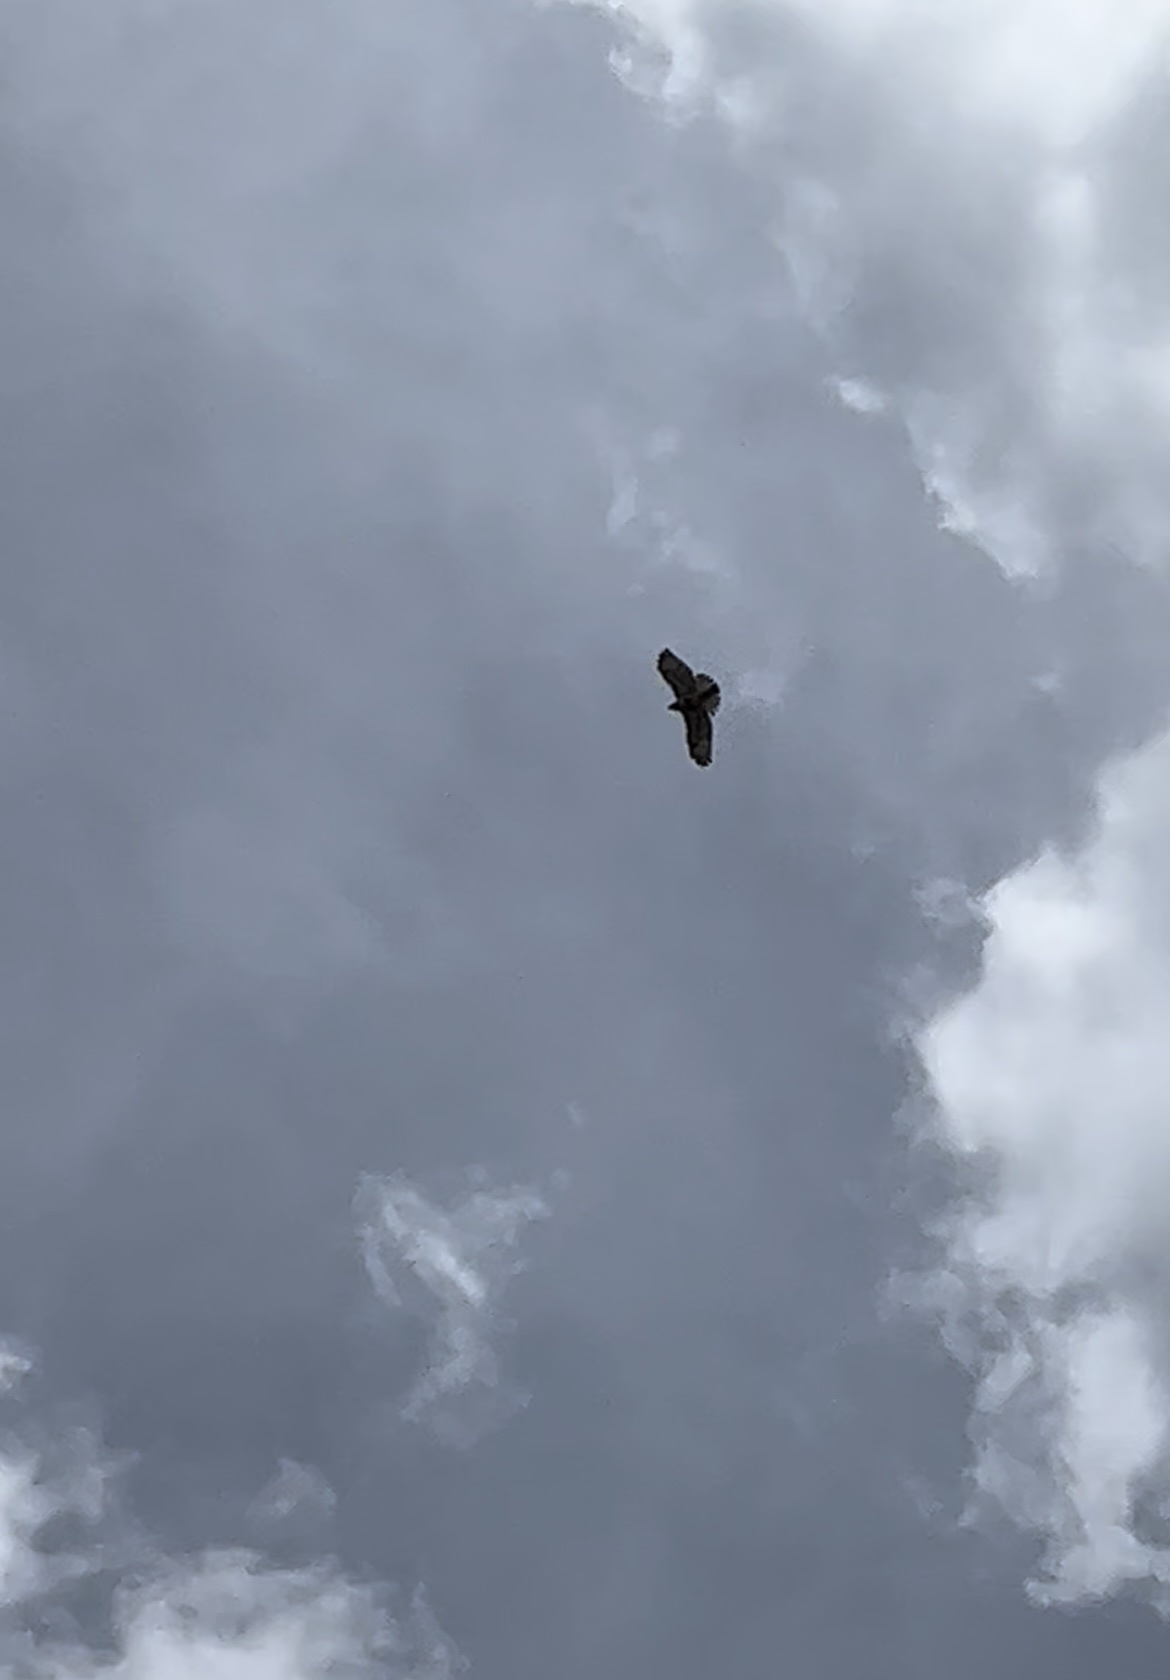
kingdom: Animalia
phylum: Chordata
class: Aves
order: Accipitriformes
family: Accipitridae
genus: Buteo
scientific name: Buteo jamaicensis
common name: Red-tailed hawk
